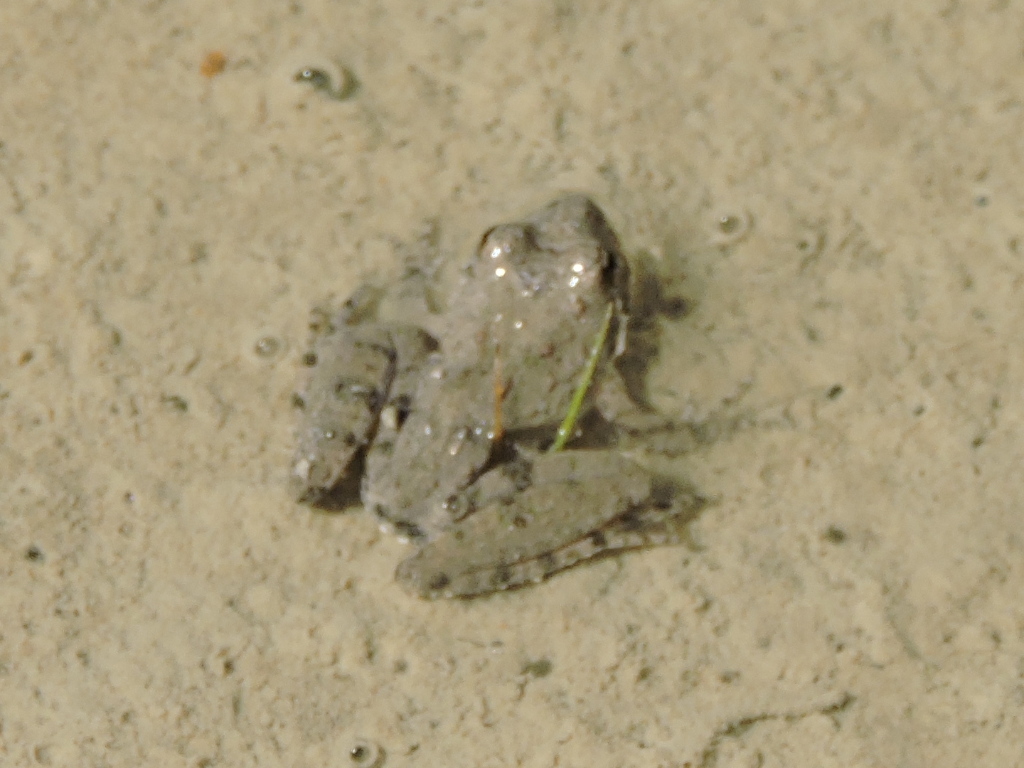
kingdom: Animalia
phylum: Chordata
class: Amphibia
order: Anura
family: Hylidae
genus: Acris
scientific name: Acris blanchardi
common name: Blanchard's cricket frog
